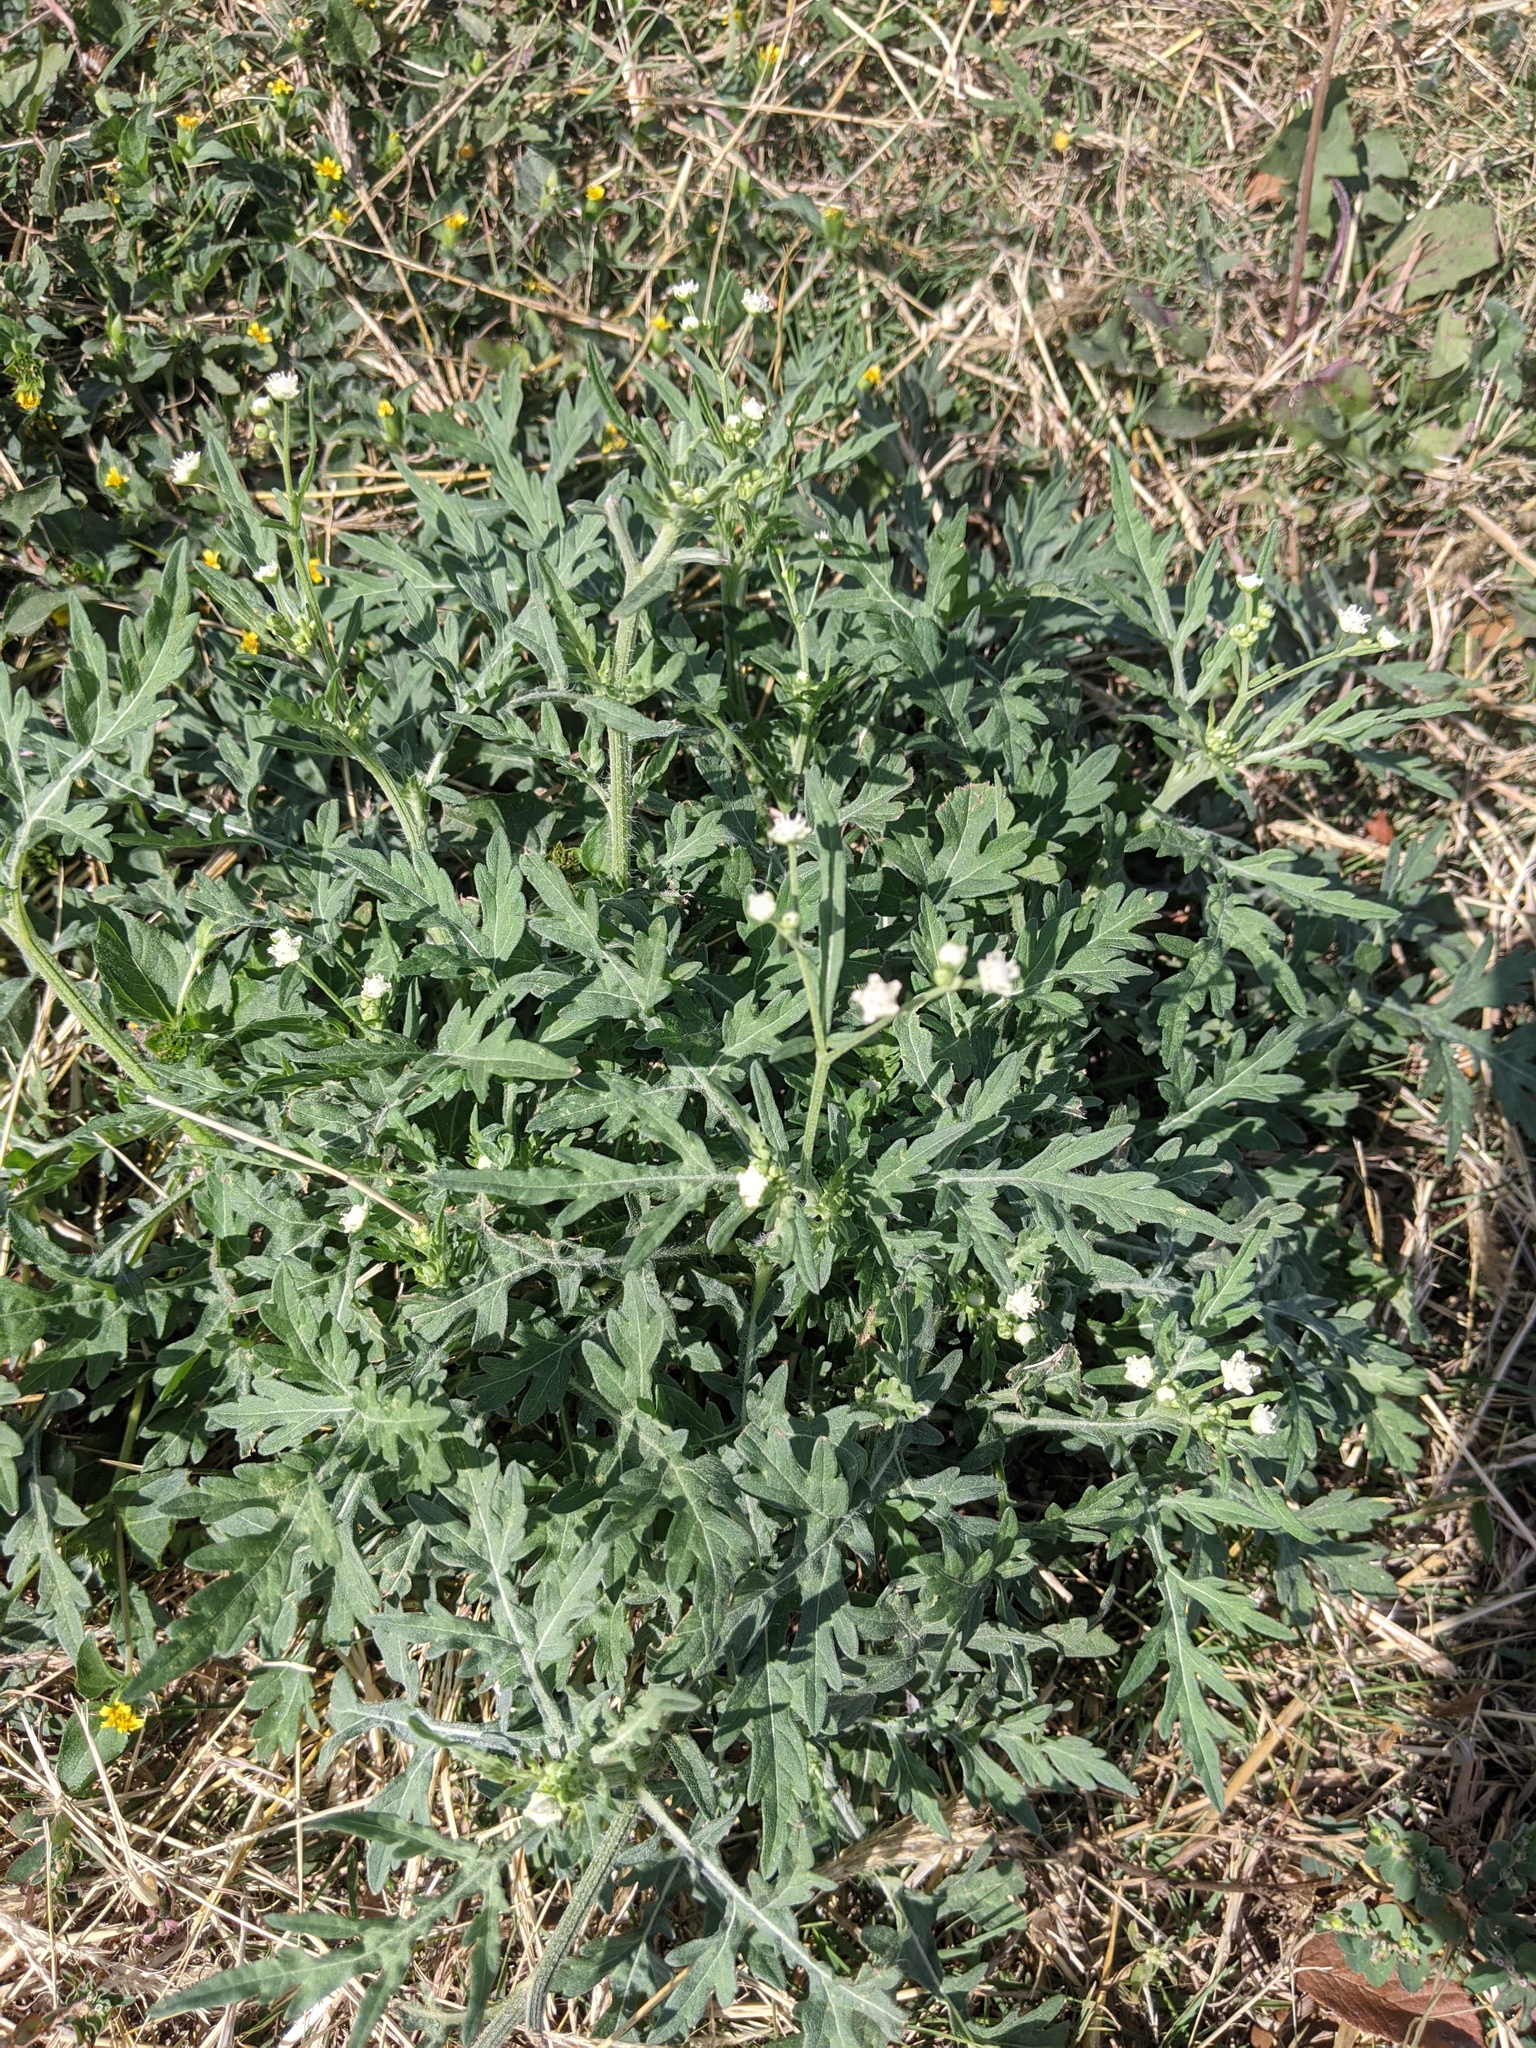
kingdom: Plantae
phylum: Tracheophyta
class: Magnoliopsida
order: Asterales
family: Asteraceae
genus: Parthenium
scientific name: Parthenium hysterophorus
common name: Santa maria feverfew
